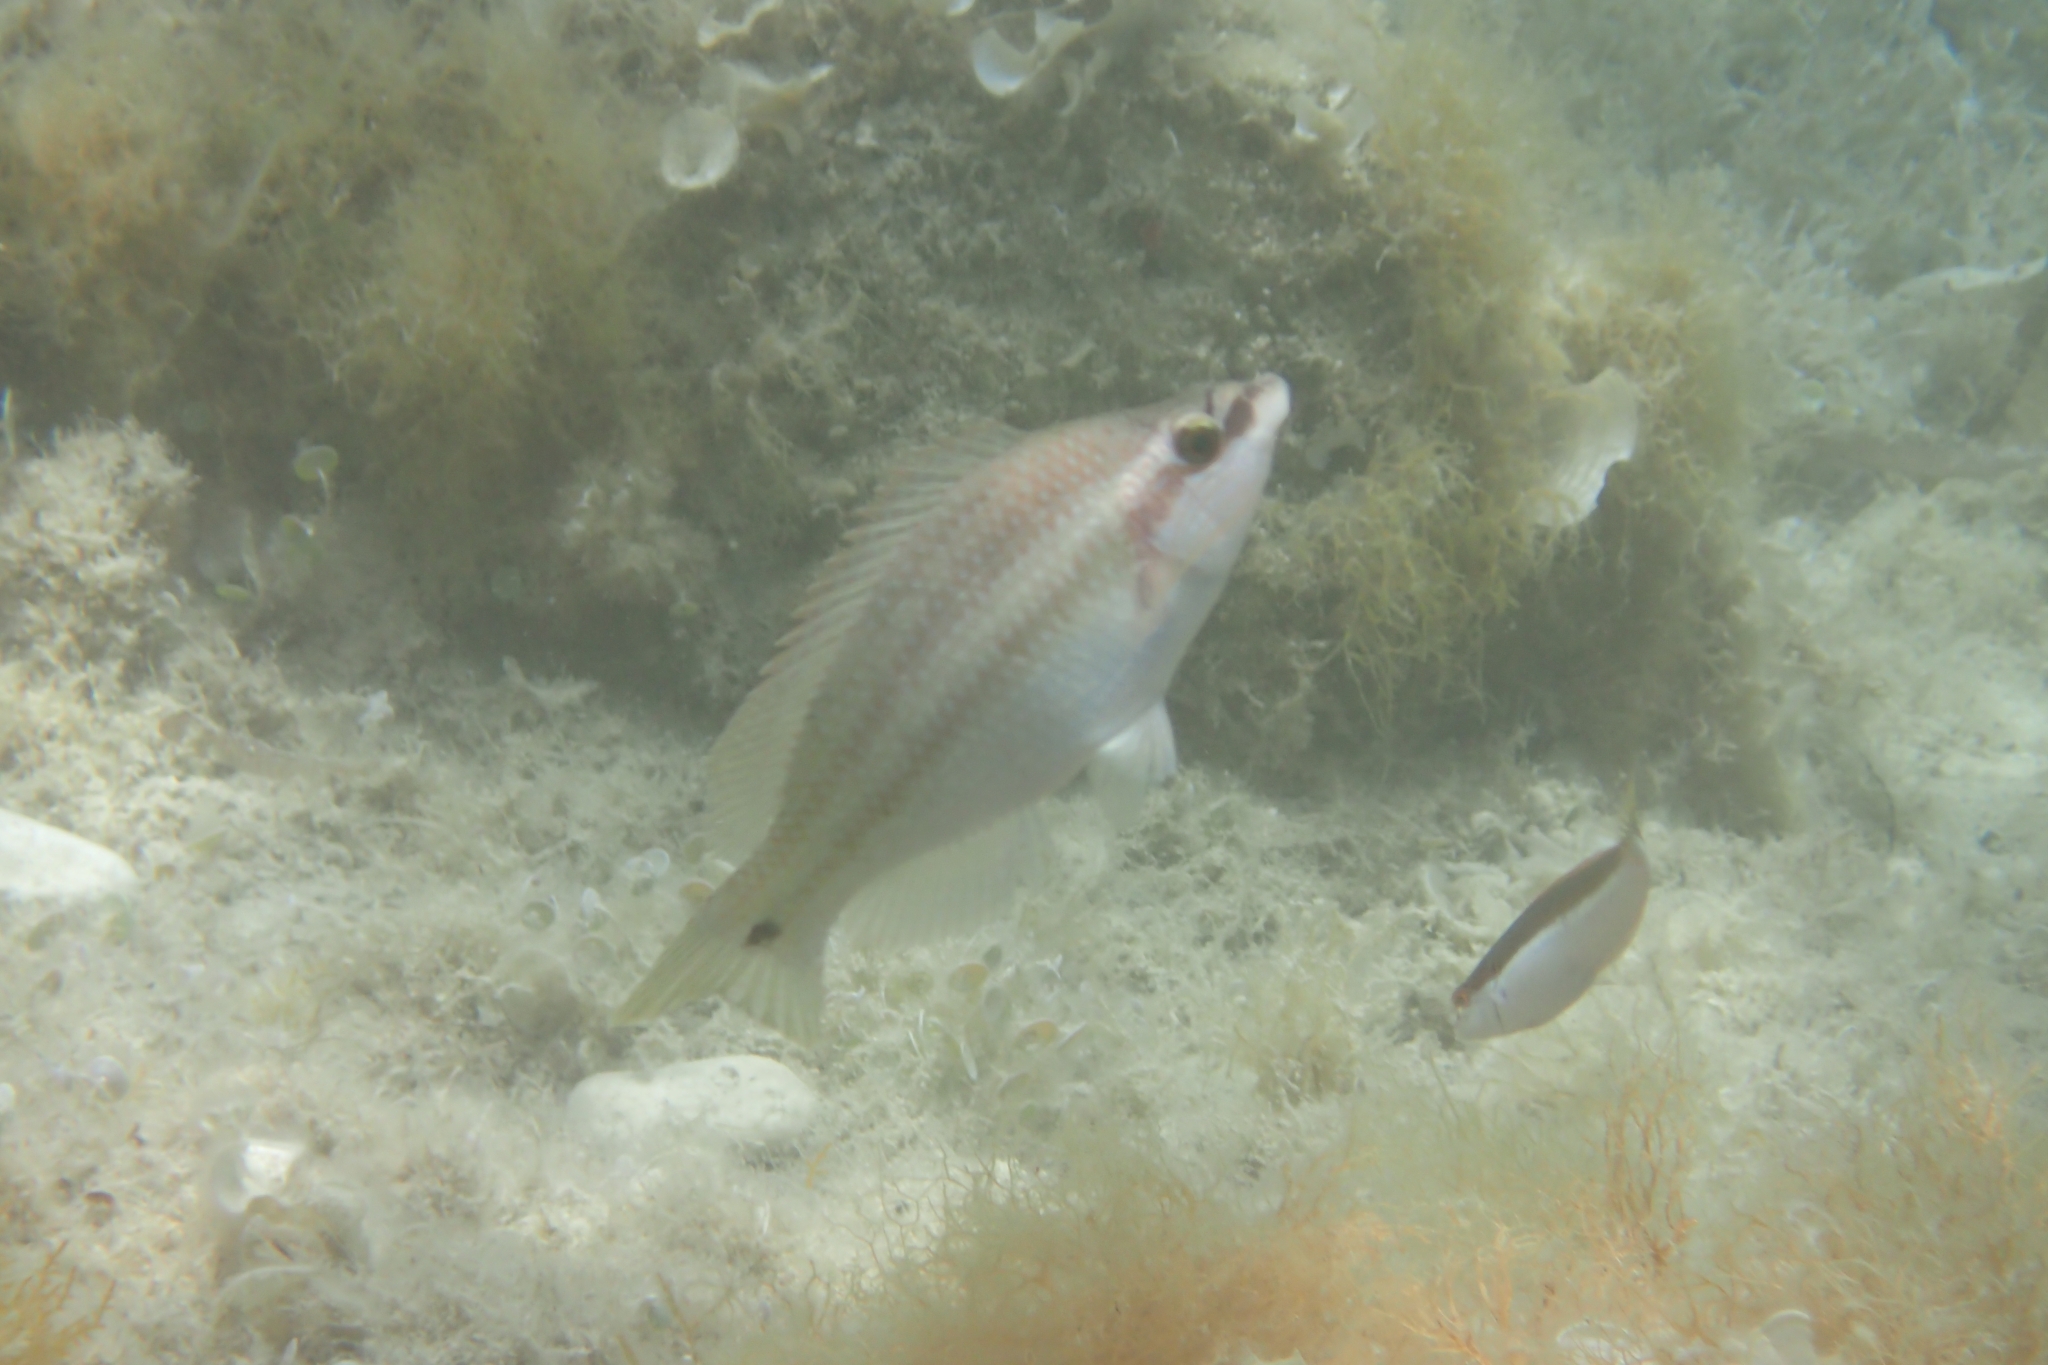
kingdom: Animalia
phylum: Chordata
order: Perciformes
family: Labridae
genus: Symphodus
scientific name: Symphodus tinca
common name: Peacock wrasse
